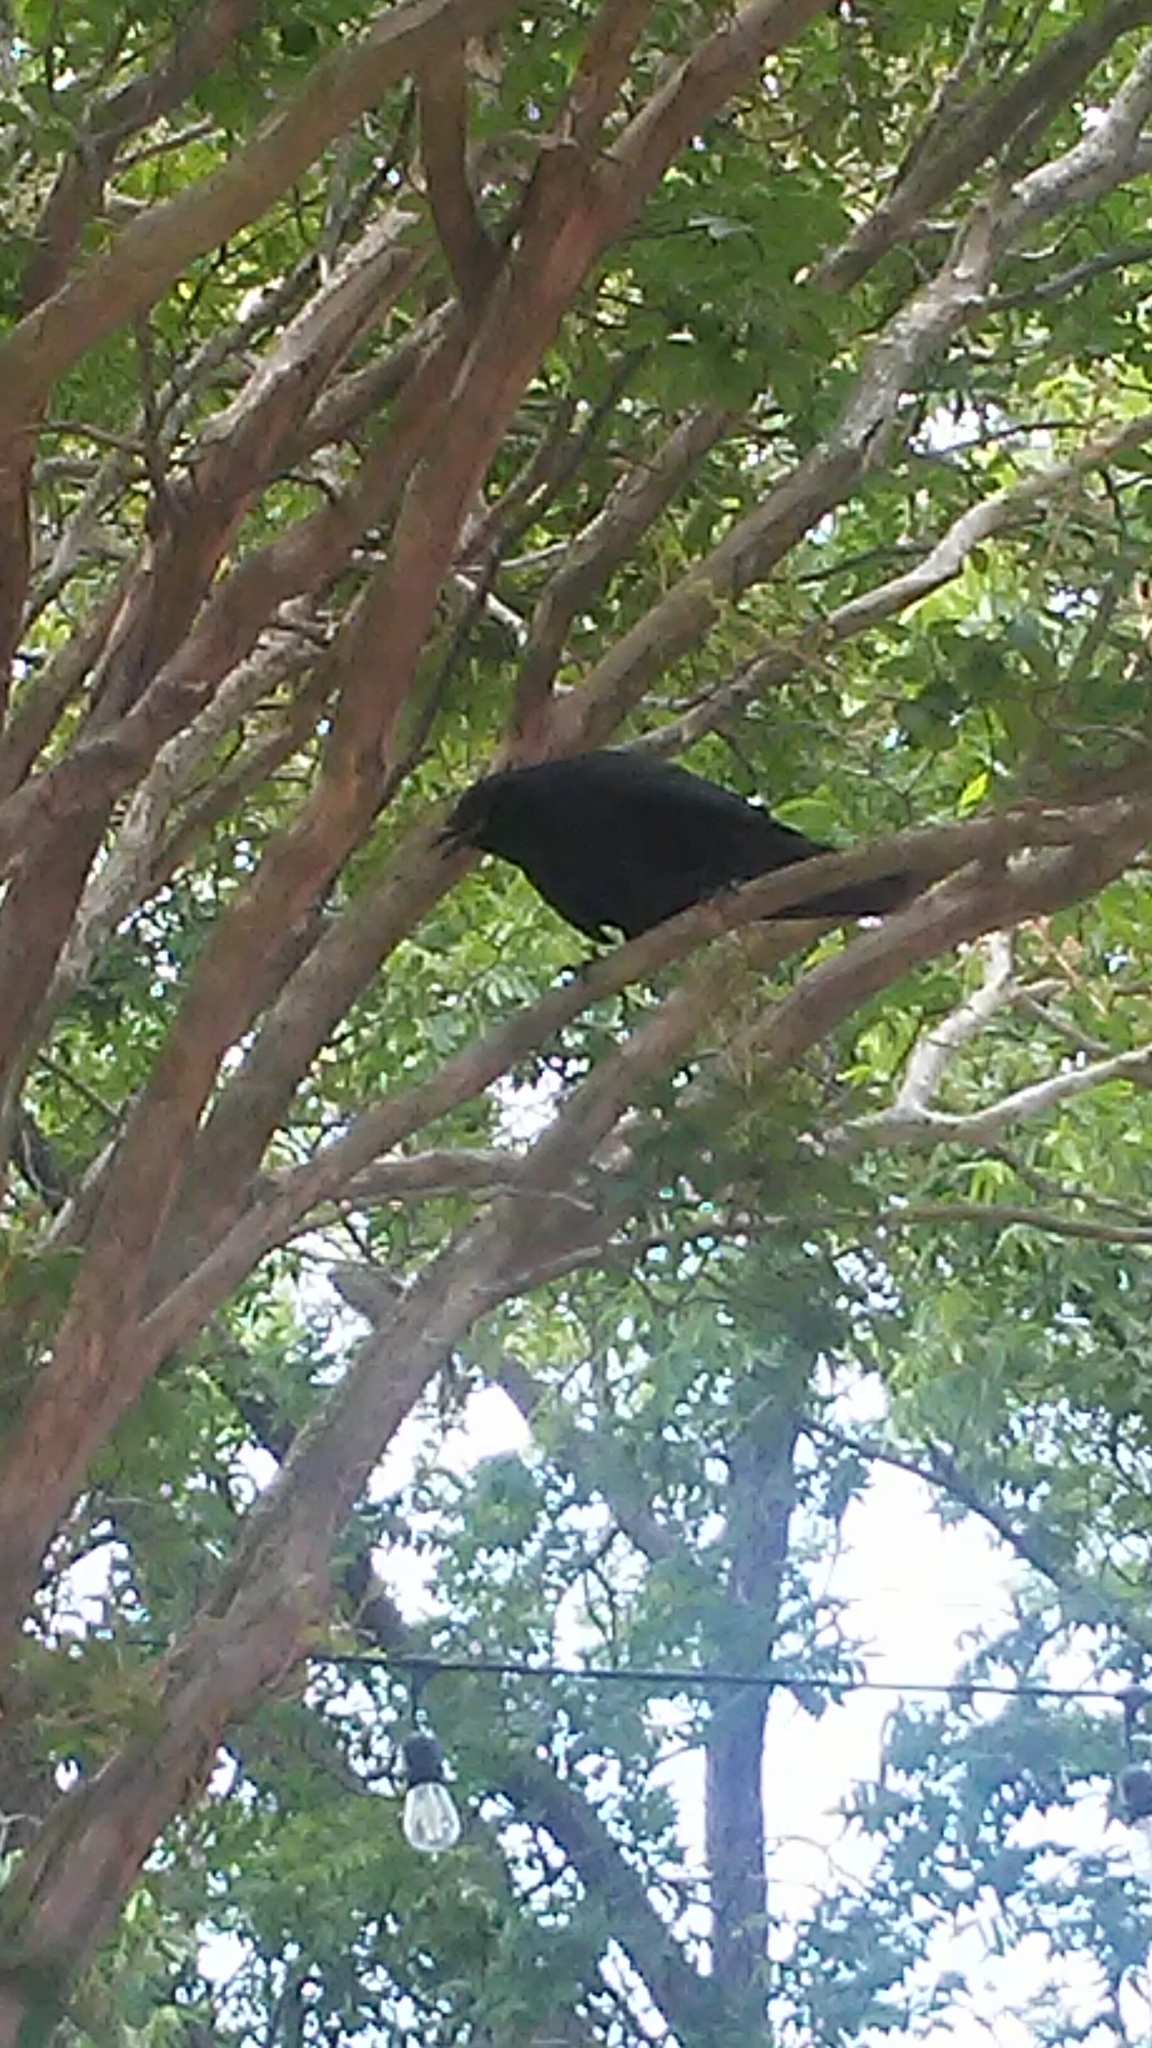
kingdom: Animalia
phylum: Chordata
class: Aves
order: Passeriformes
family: Corvidae
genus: Corvus
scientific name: Corvus
